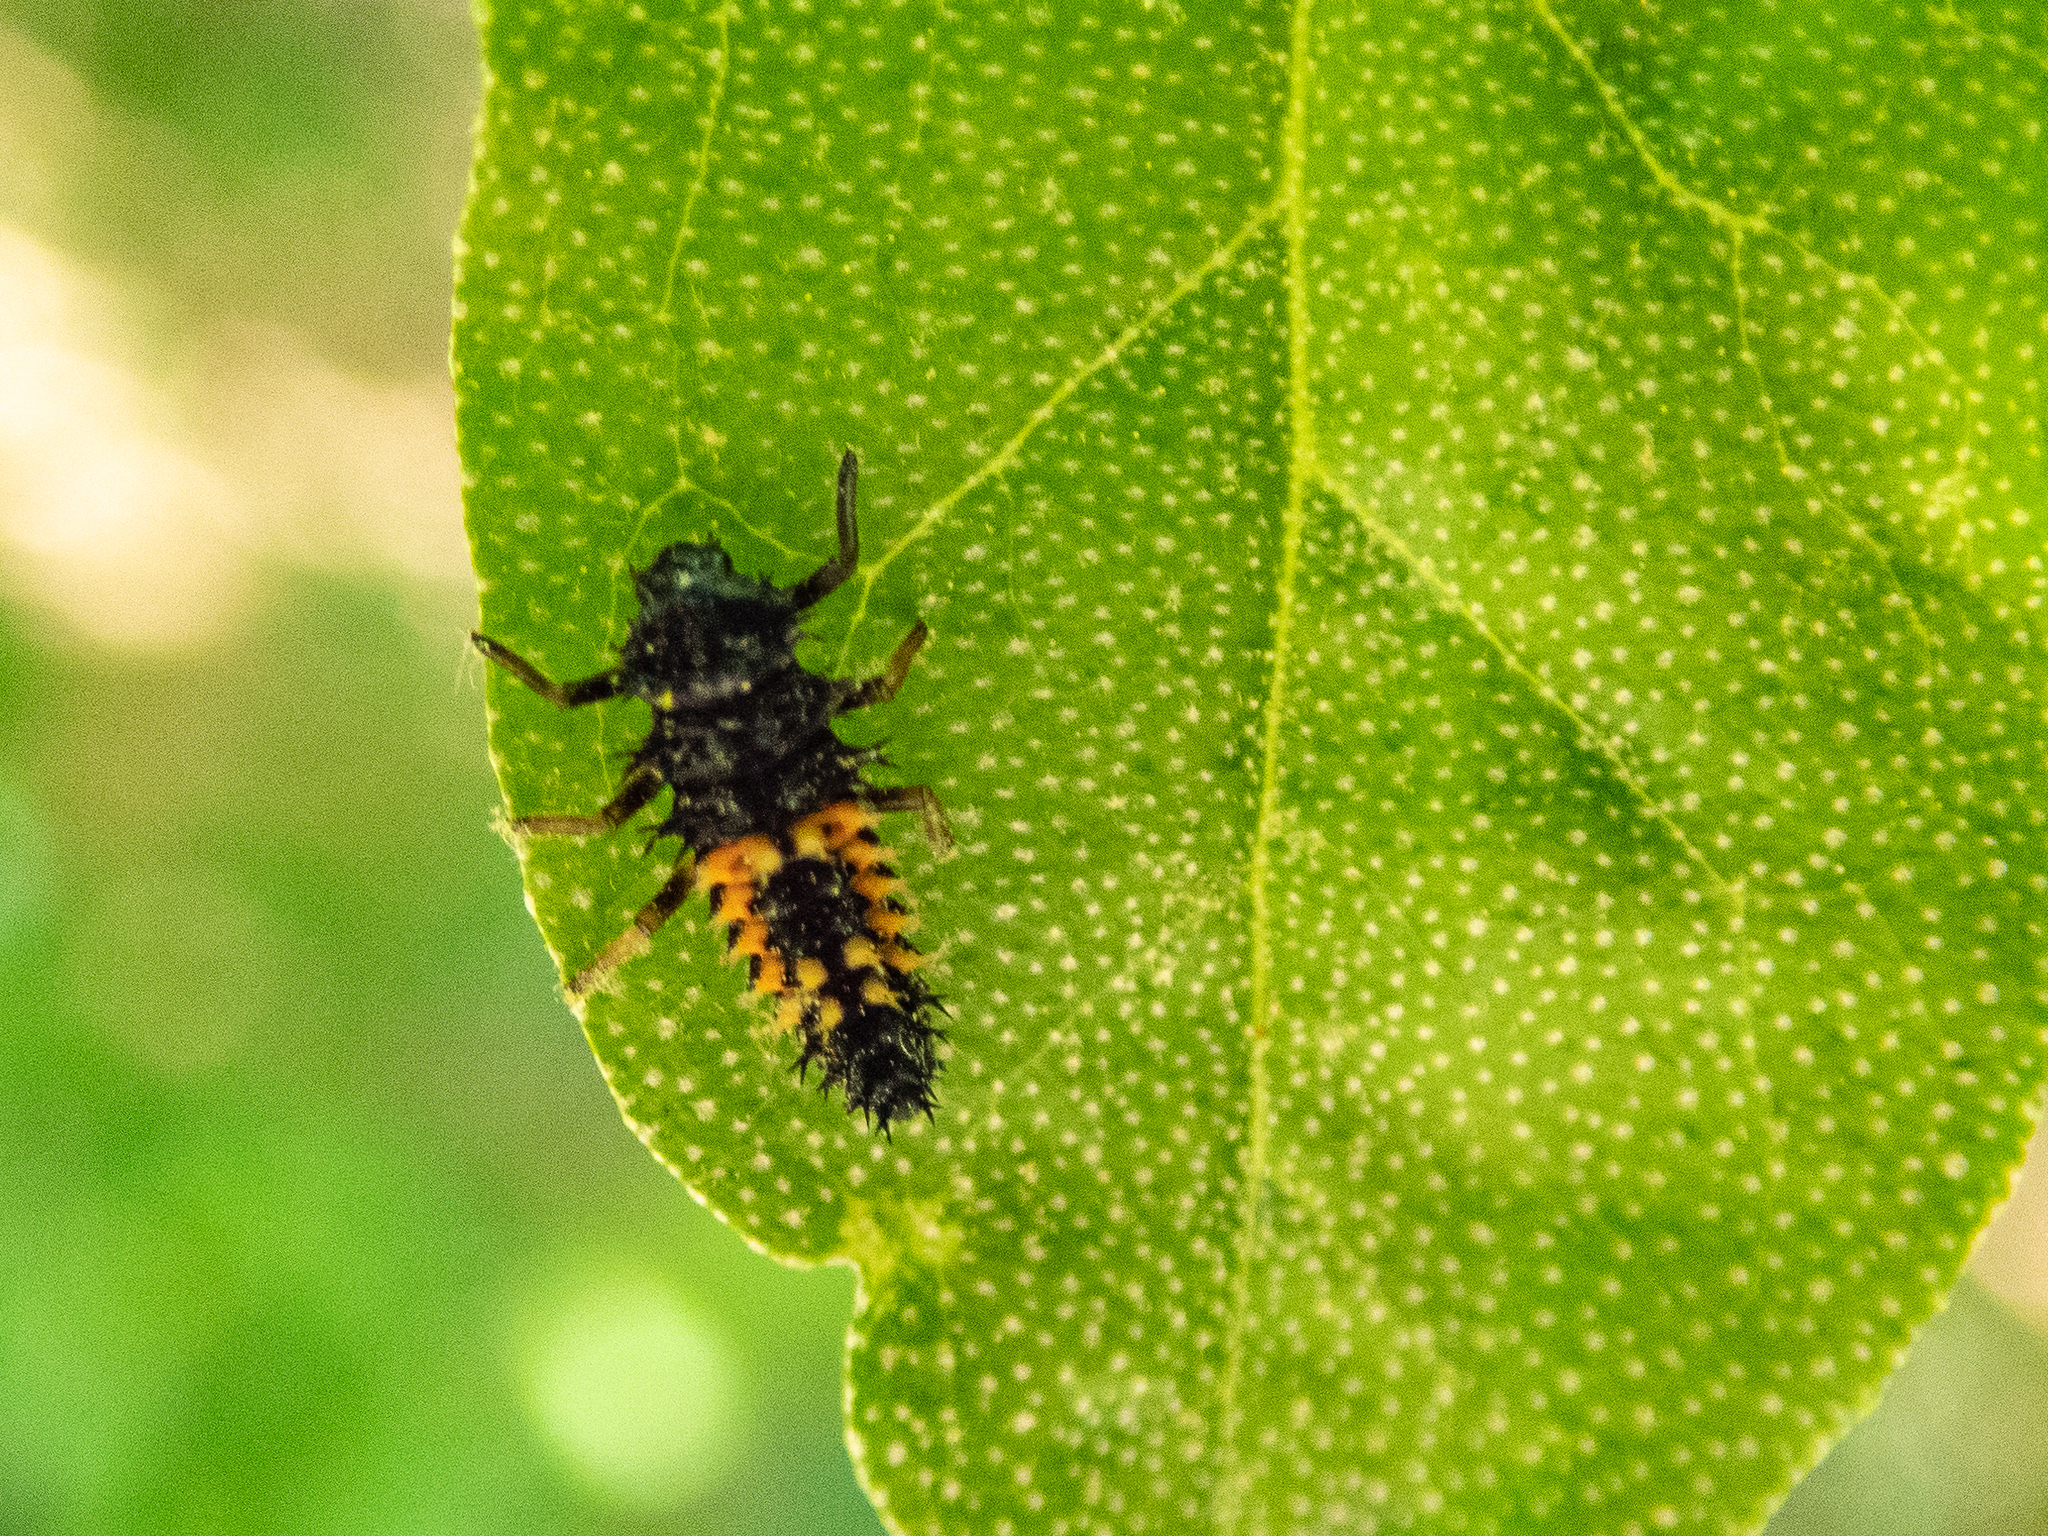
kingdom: Animalia
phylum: Arthropoda
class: Insecta
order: Coleoptera
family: Coccinellidae
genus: Harmonia
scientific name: Harmonia axyridis
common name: Harlequin ladybird
